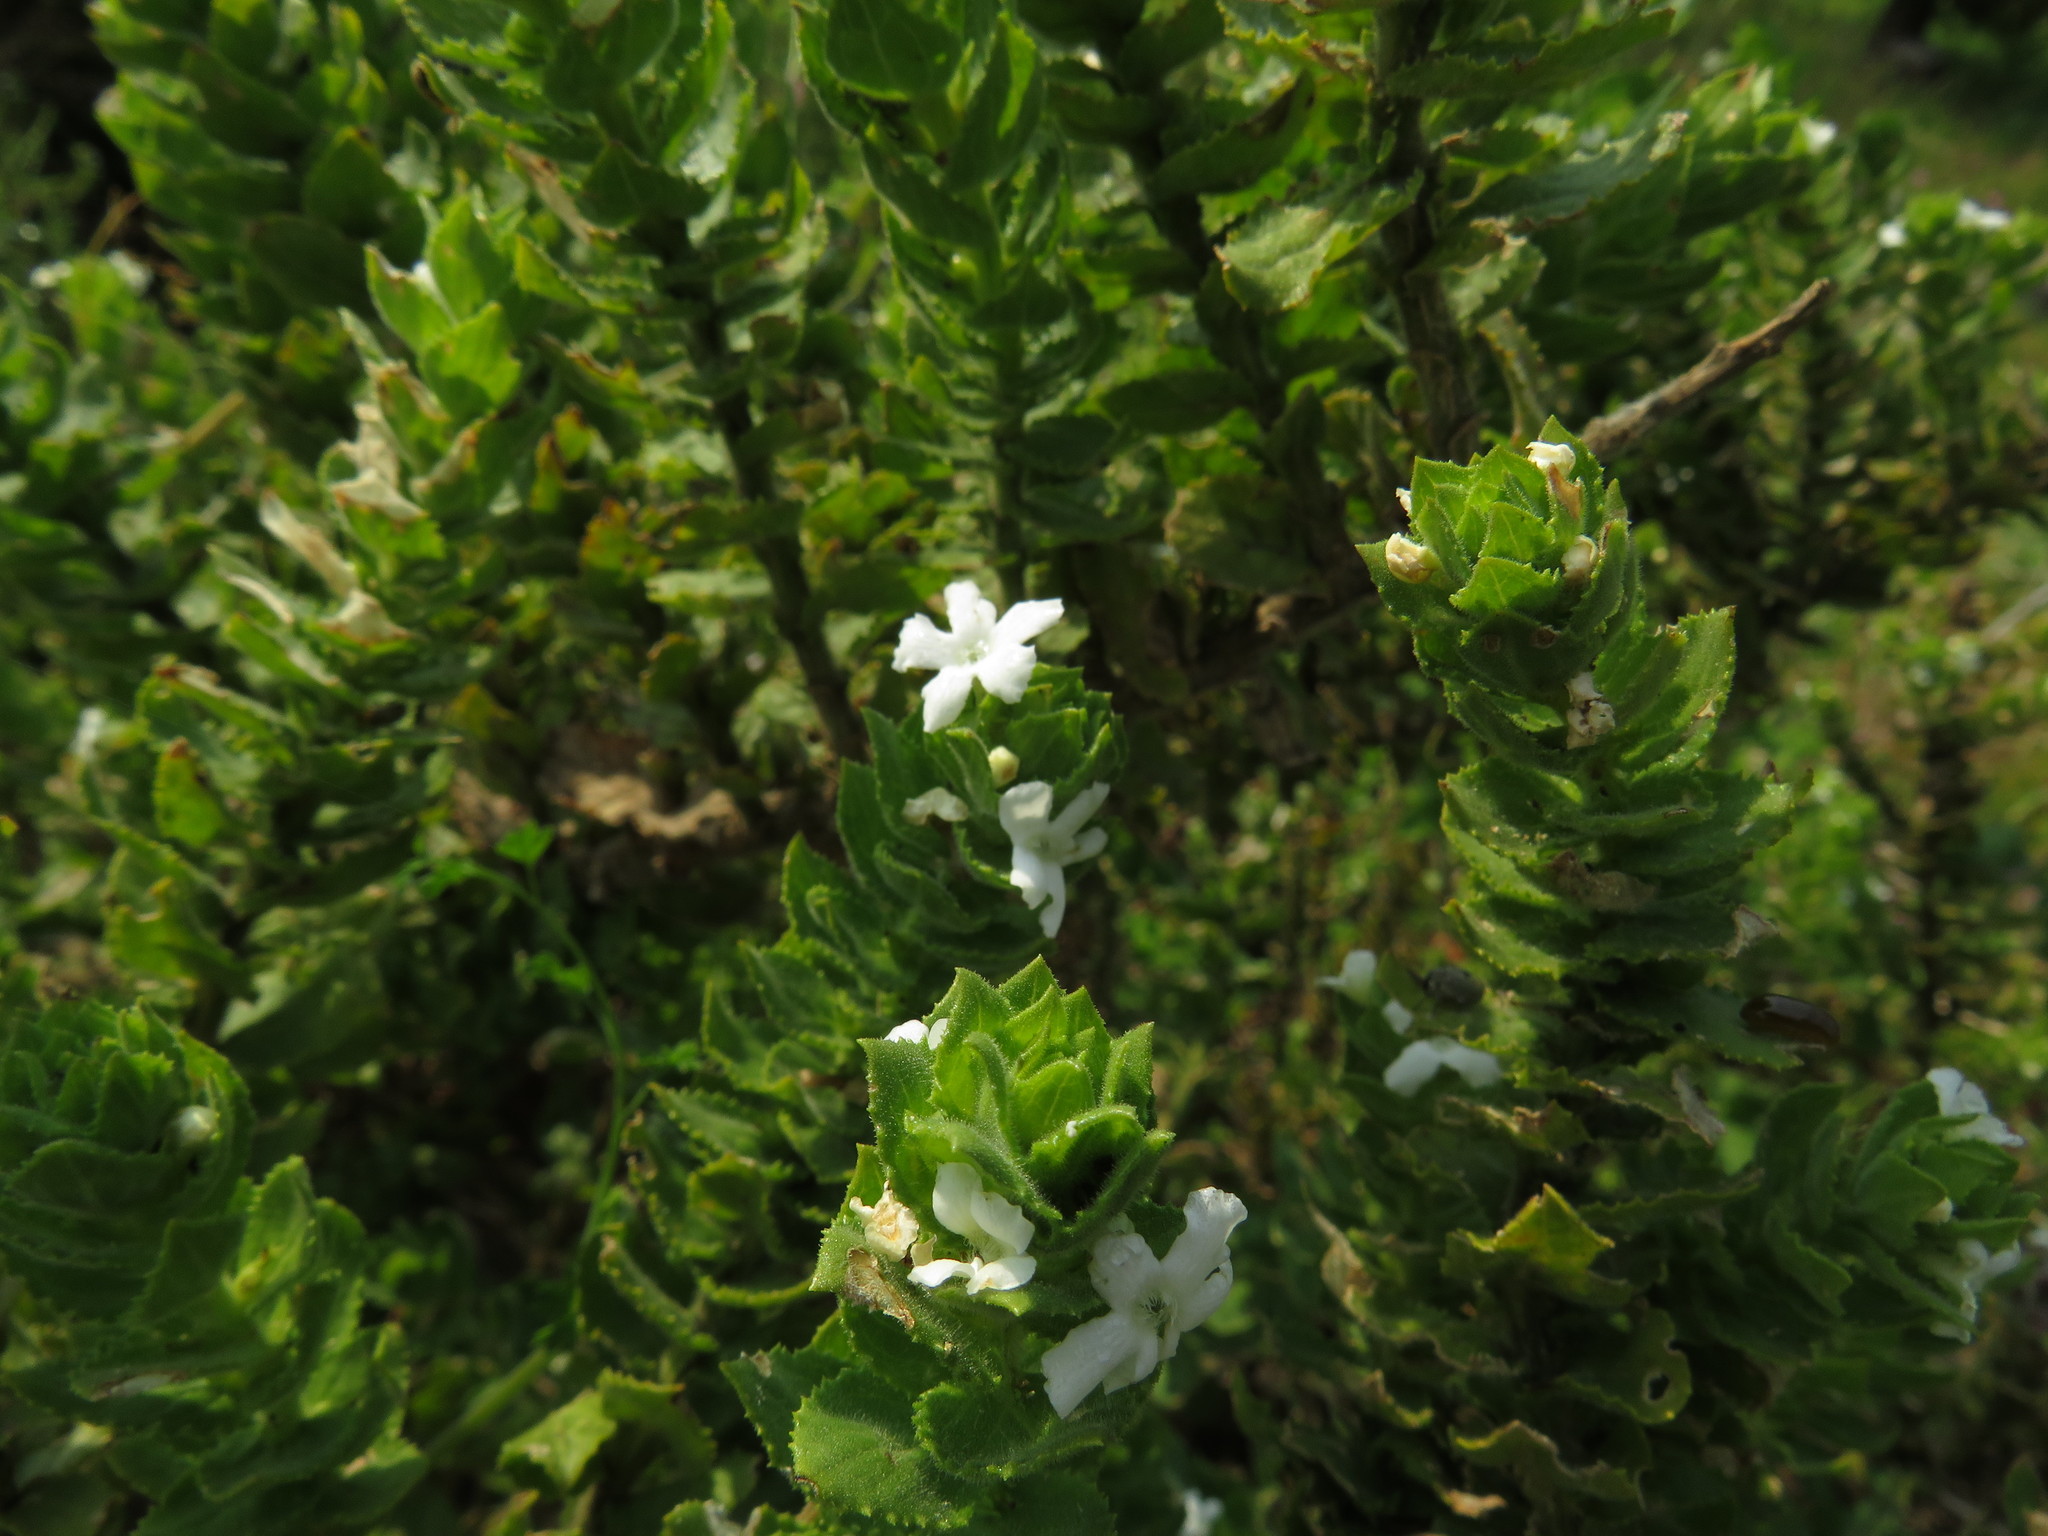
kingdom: Plantae
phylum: Tracheophyta
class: Magnoliopsida
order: Lamiales
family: Scrophulariaceae
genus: Oftia
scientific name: Oftia africana
